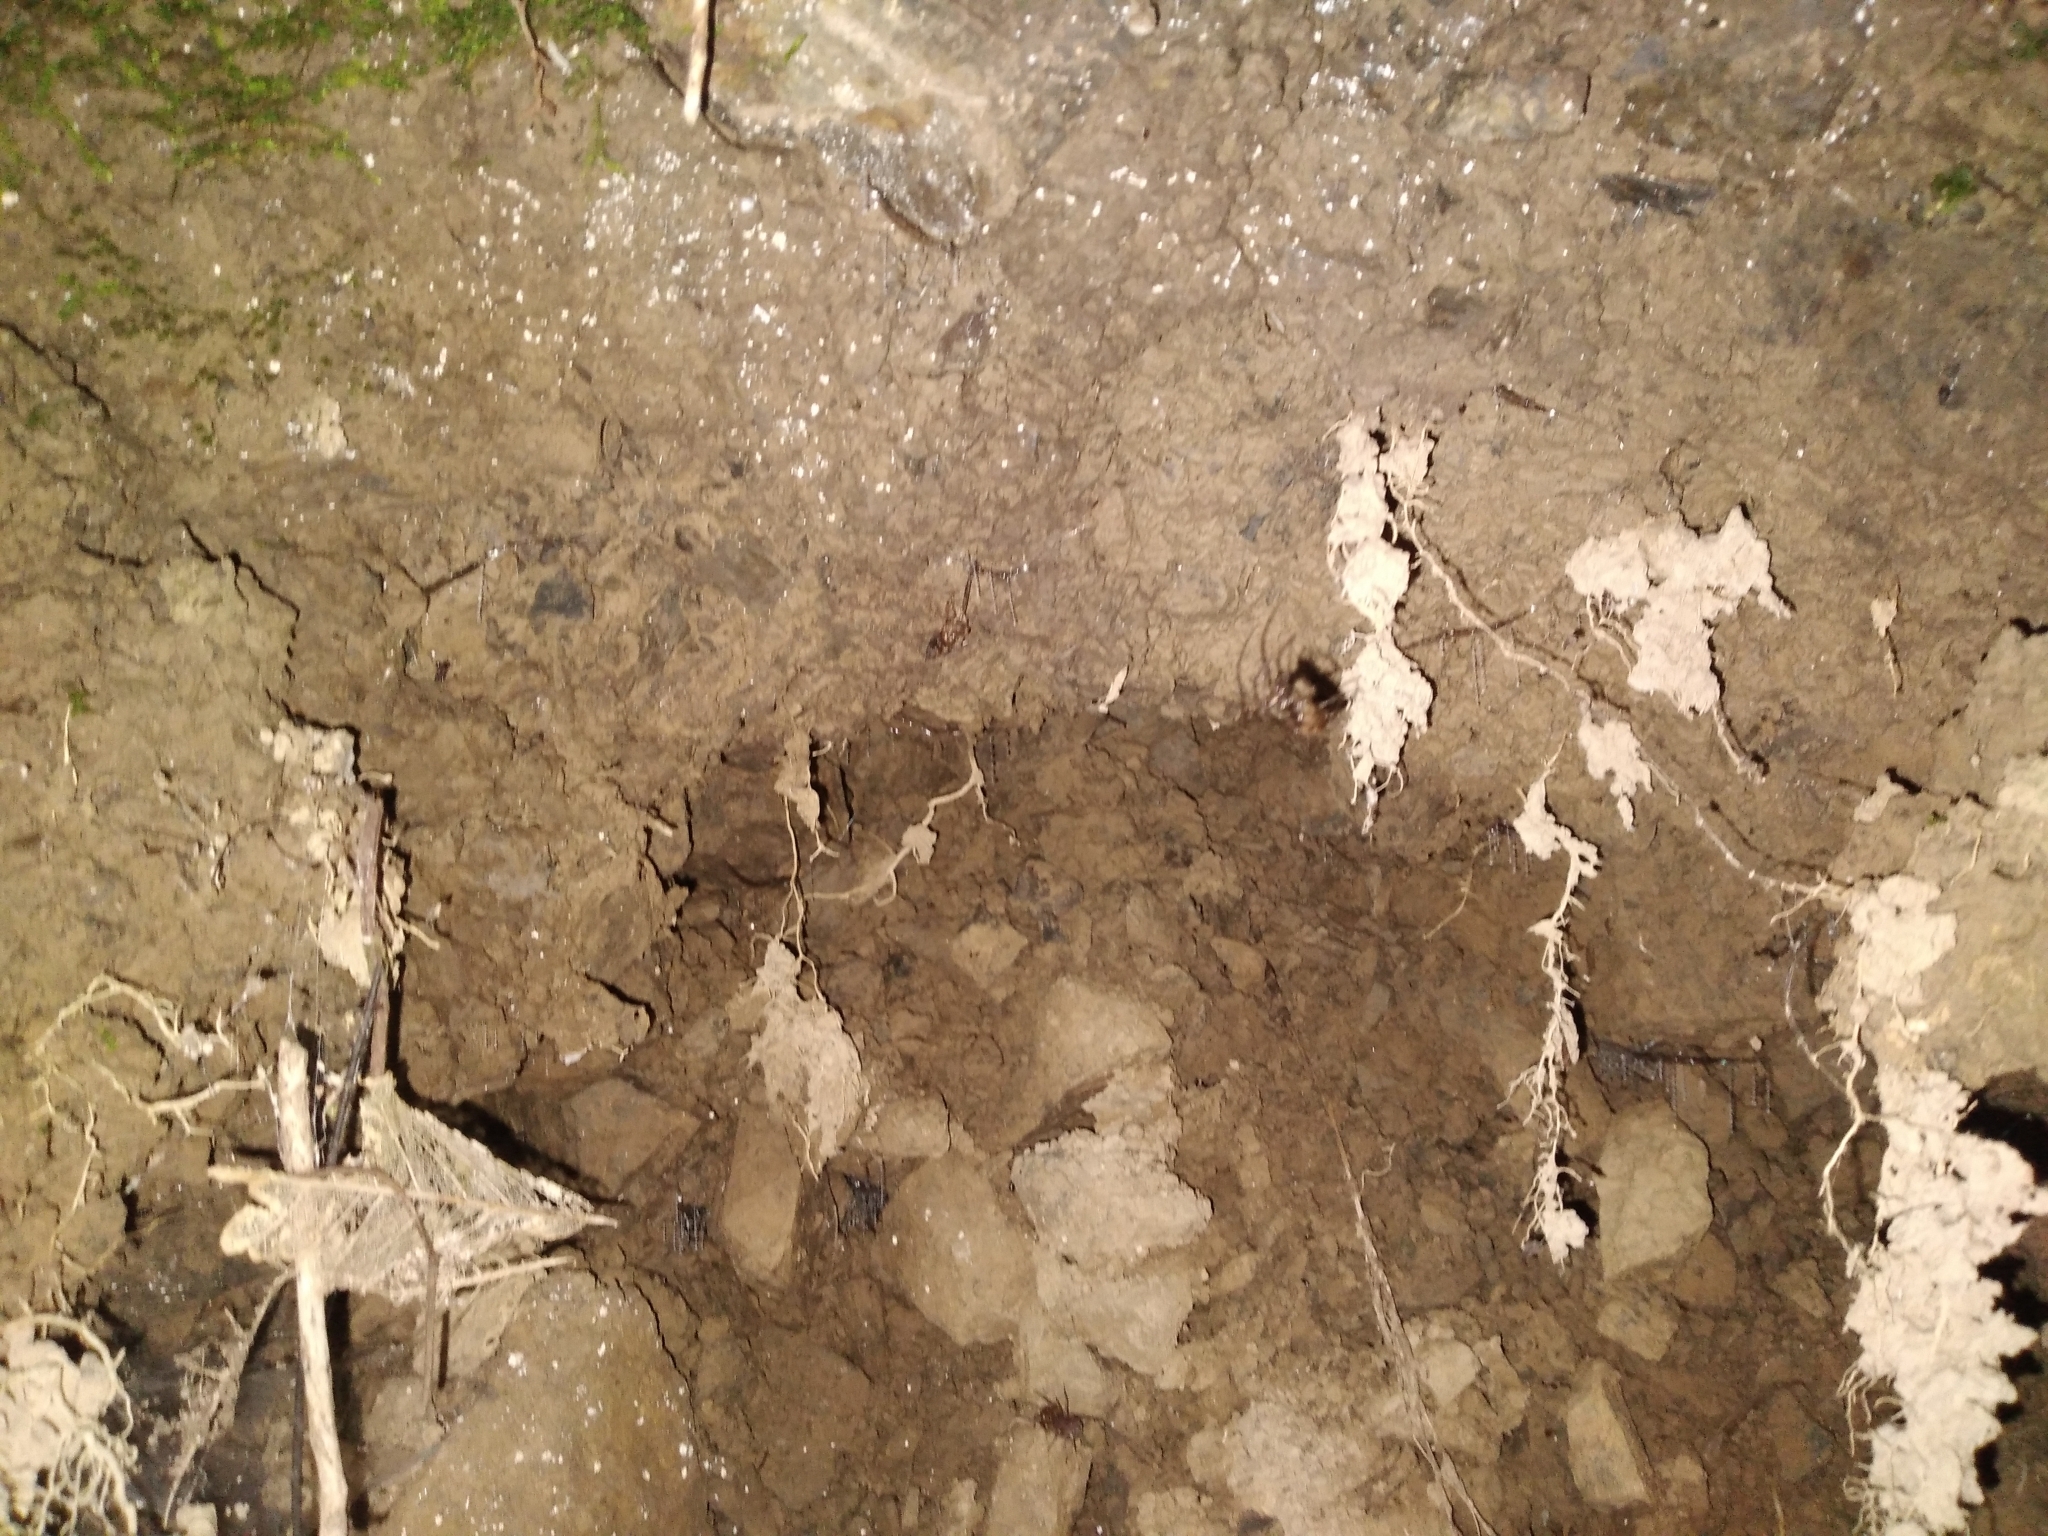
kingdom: Animalia
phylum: Arthropoda
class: Insecta
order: Diptera
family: Keroplatidae
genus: Arachnocampa
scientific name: Arachnocampa luminosa
